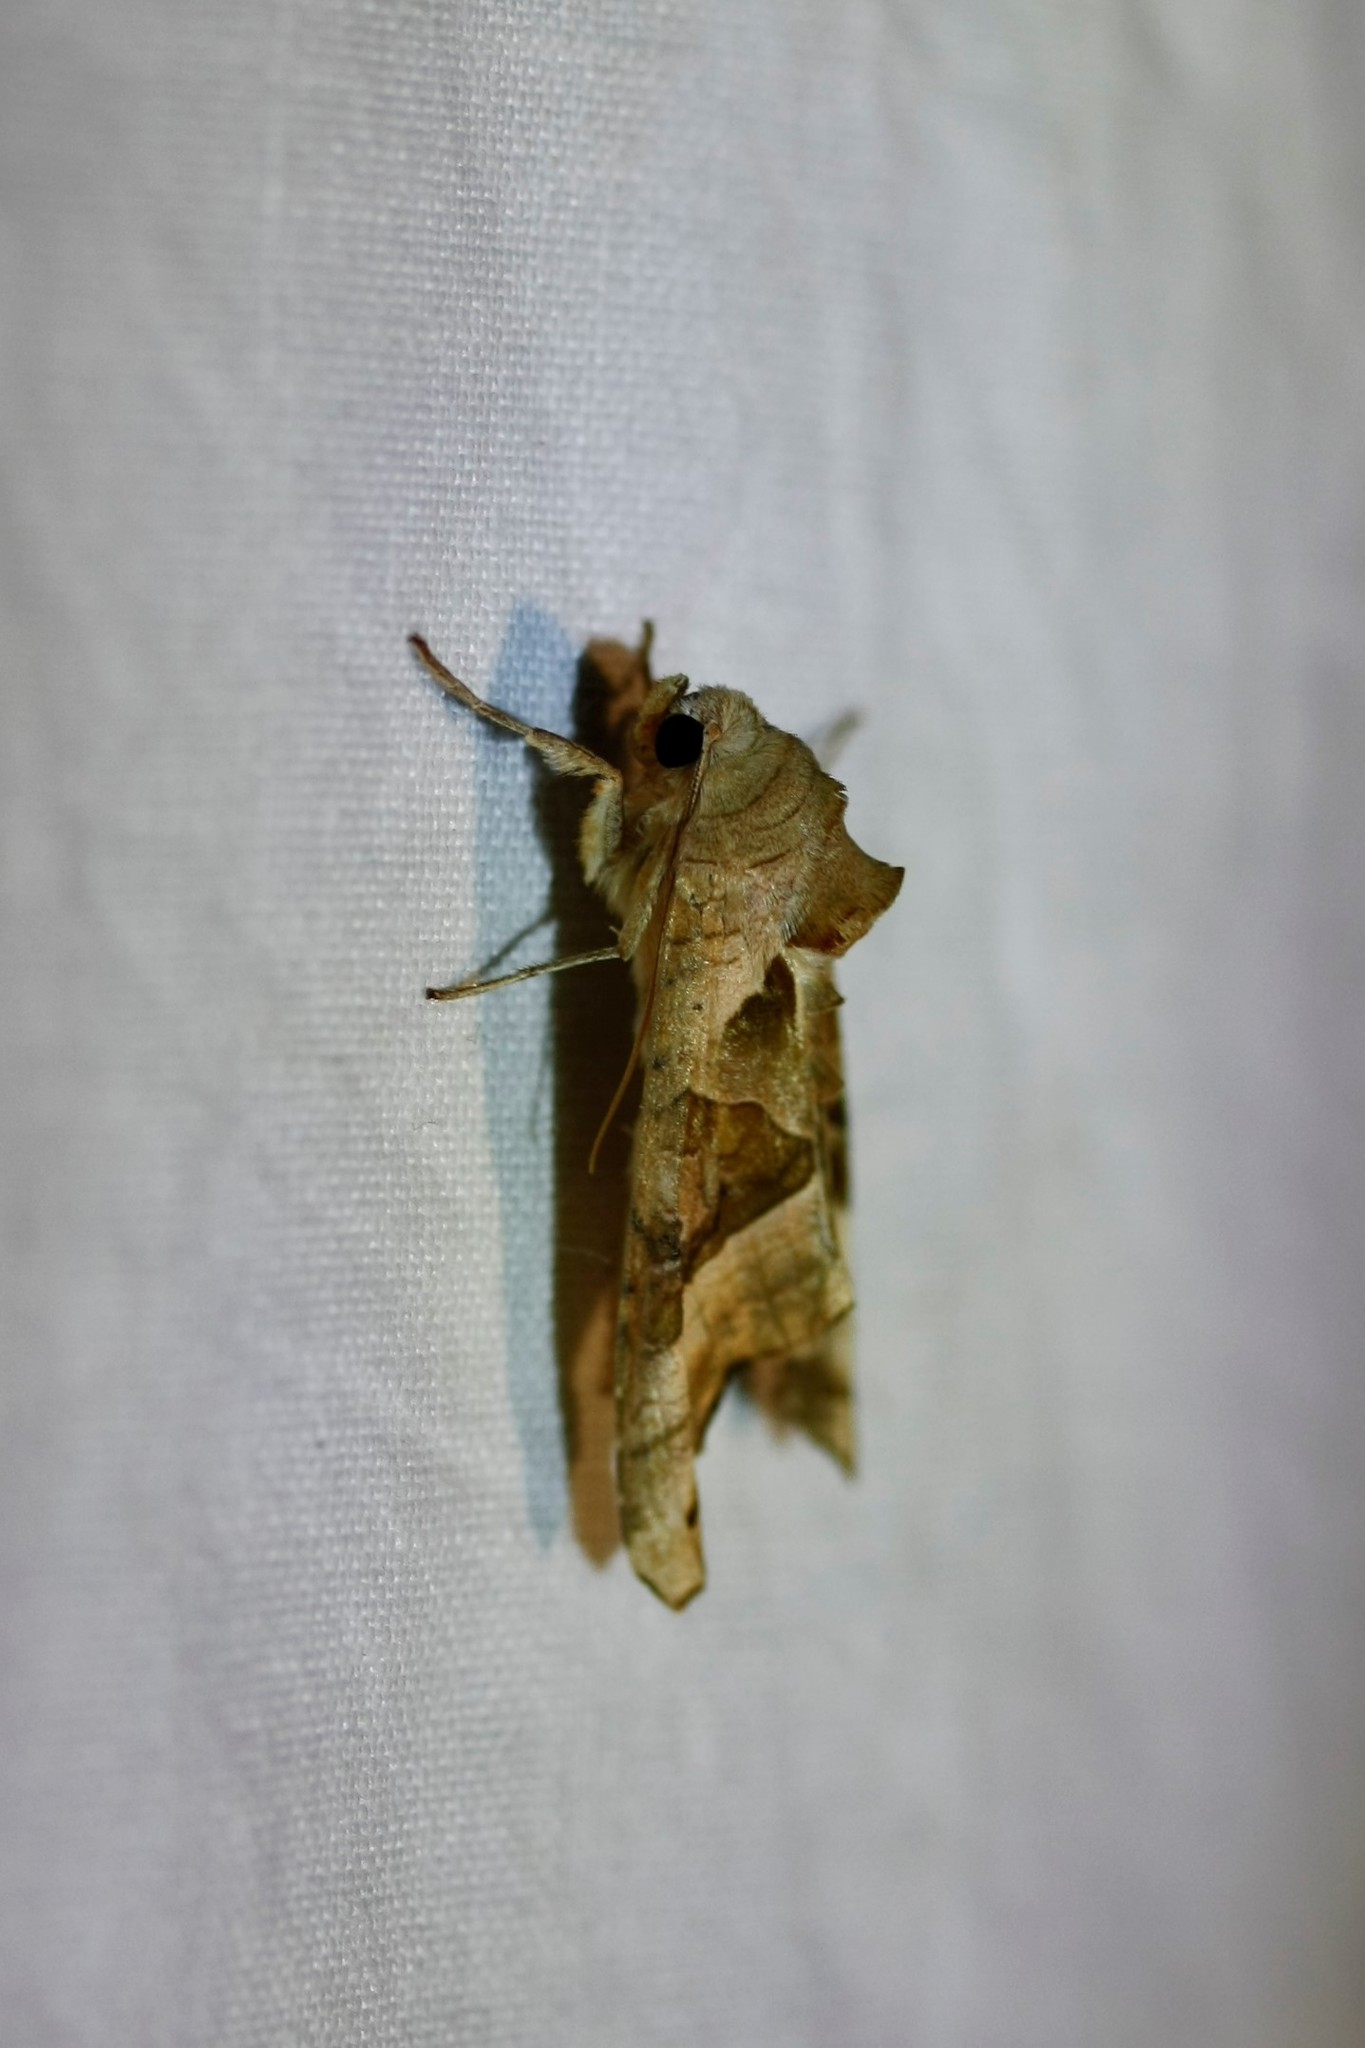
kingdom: Animalia
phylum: Arthropoda
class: Insecta
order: Lepidoptera
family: Noctuidae
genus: Phlogophora
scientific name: Phlogophora meticulosa
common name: Angle shades
